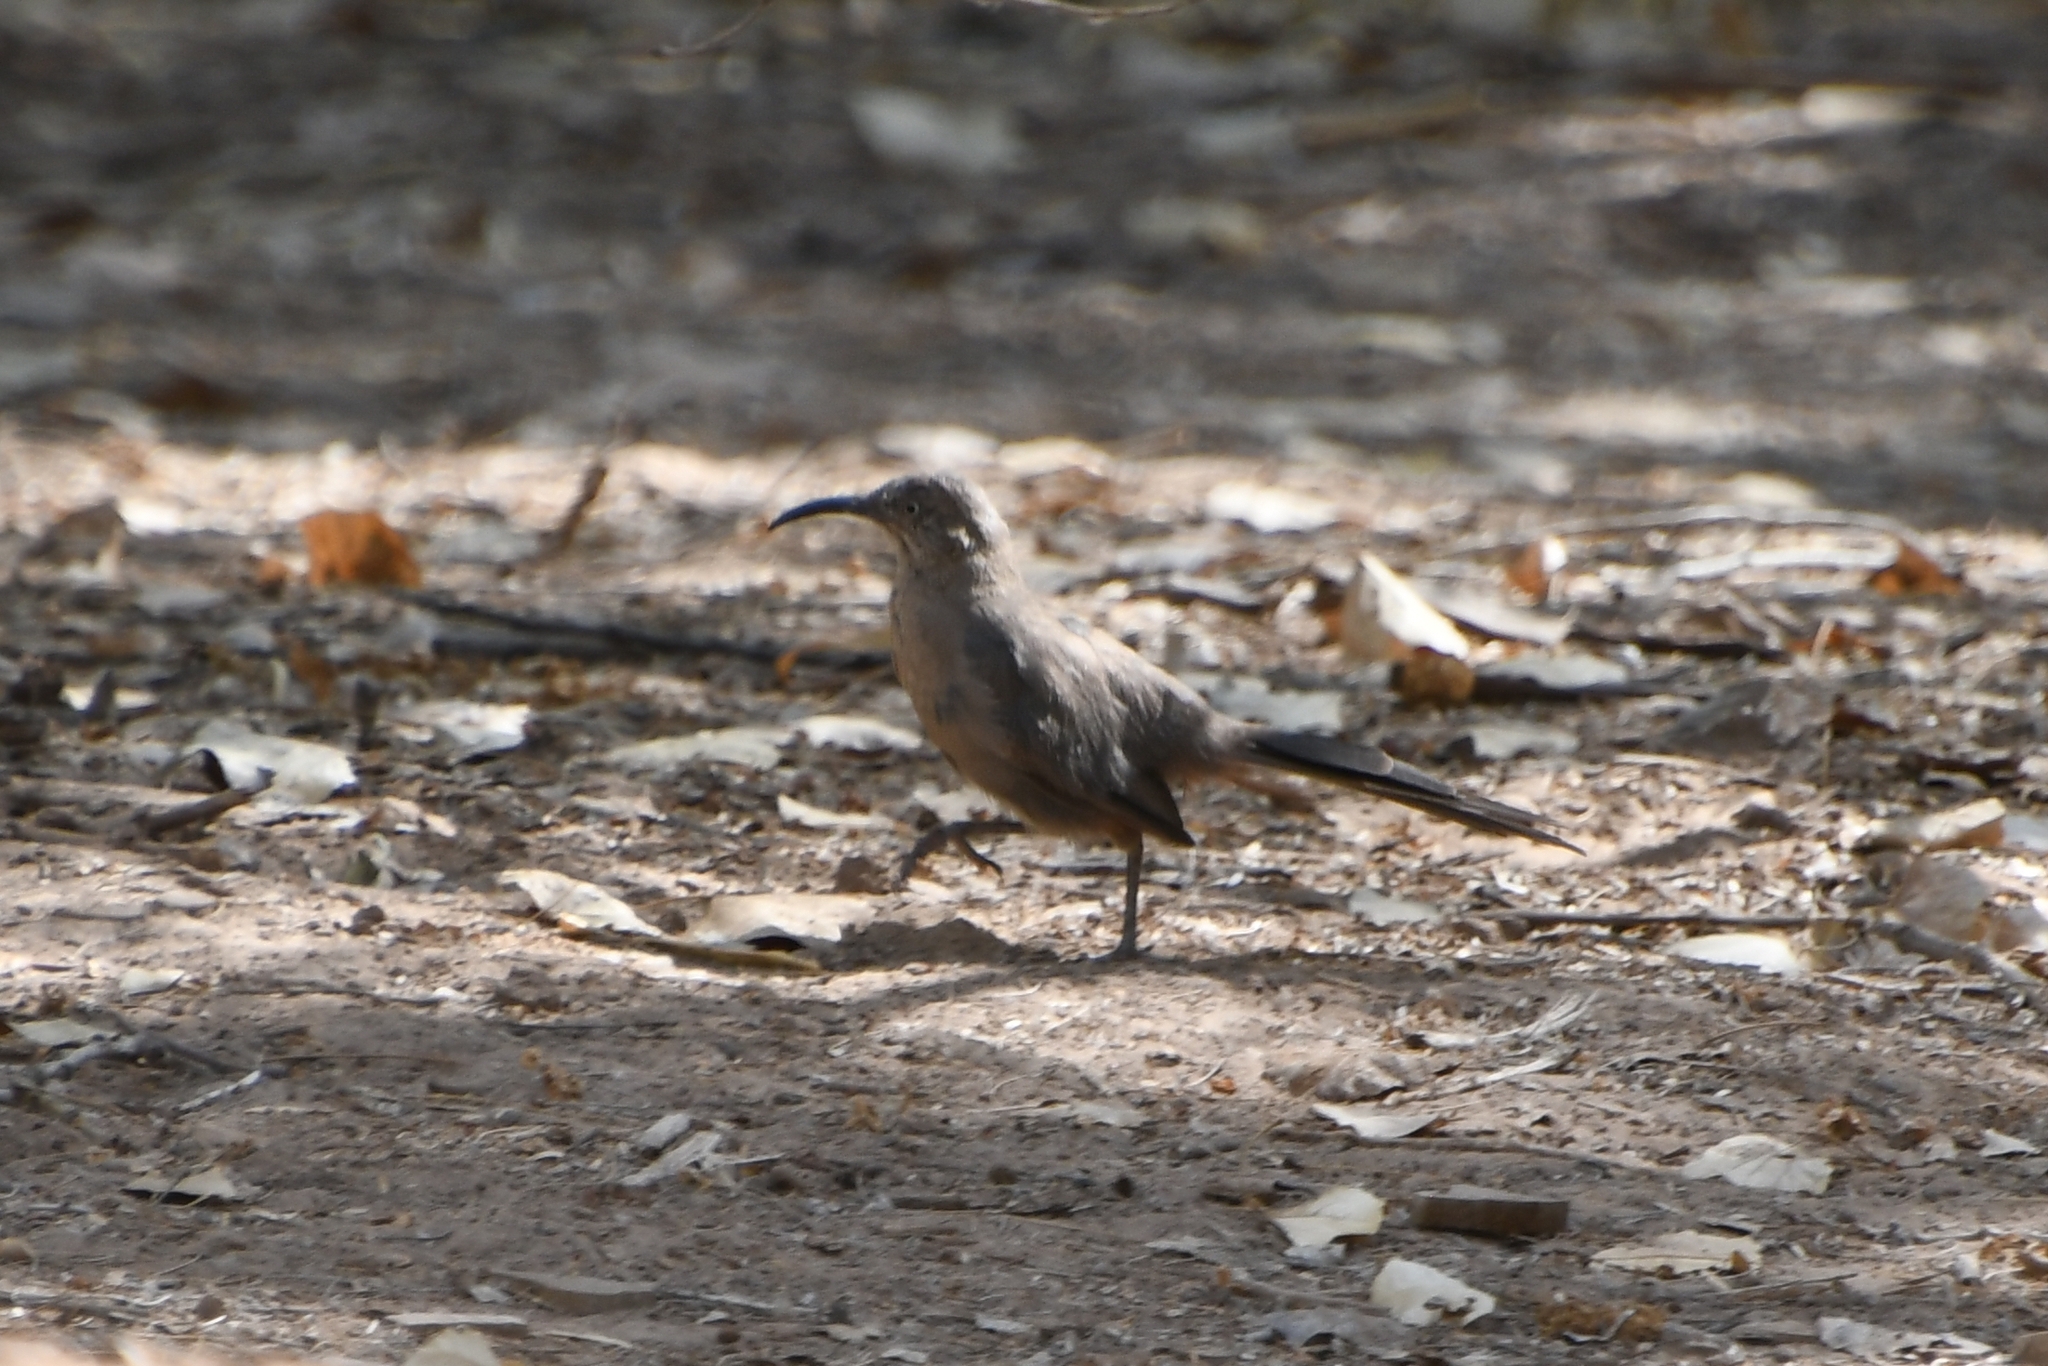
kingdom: Animalia
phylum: Chordata
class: Aves
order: Passeriformes
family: Mimidae
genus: Toxostoma
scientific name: Toxostoma crissale
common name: Crissal thrasher
